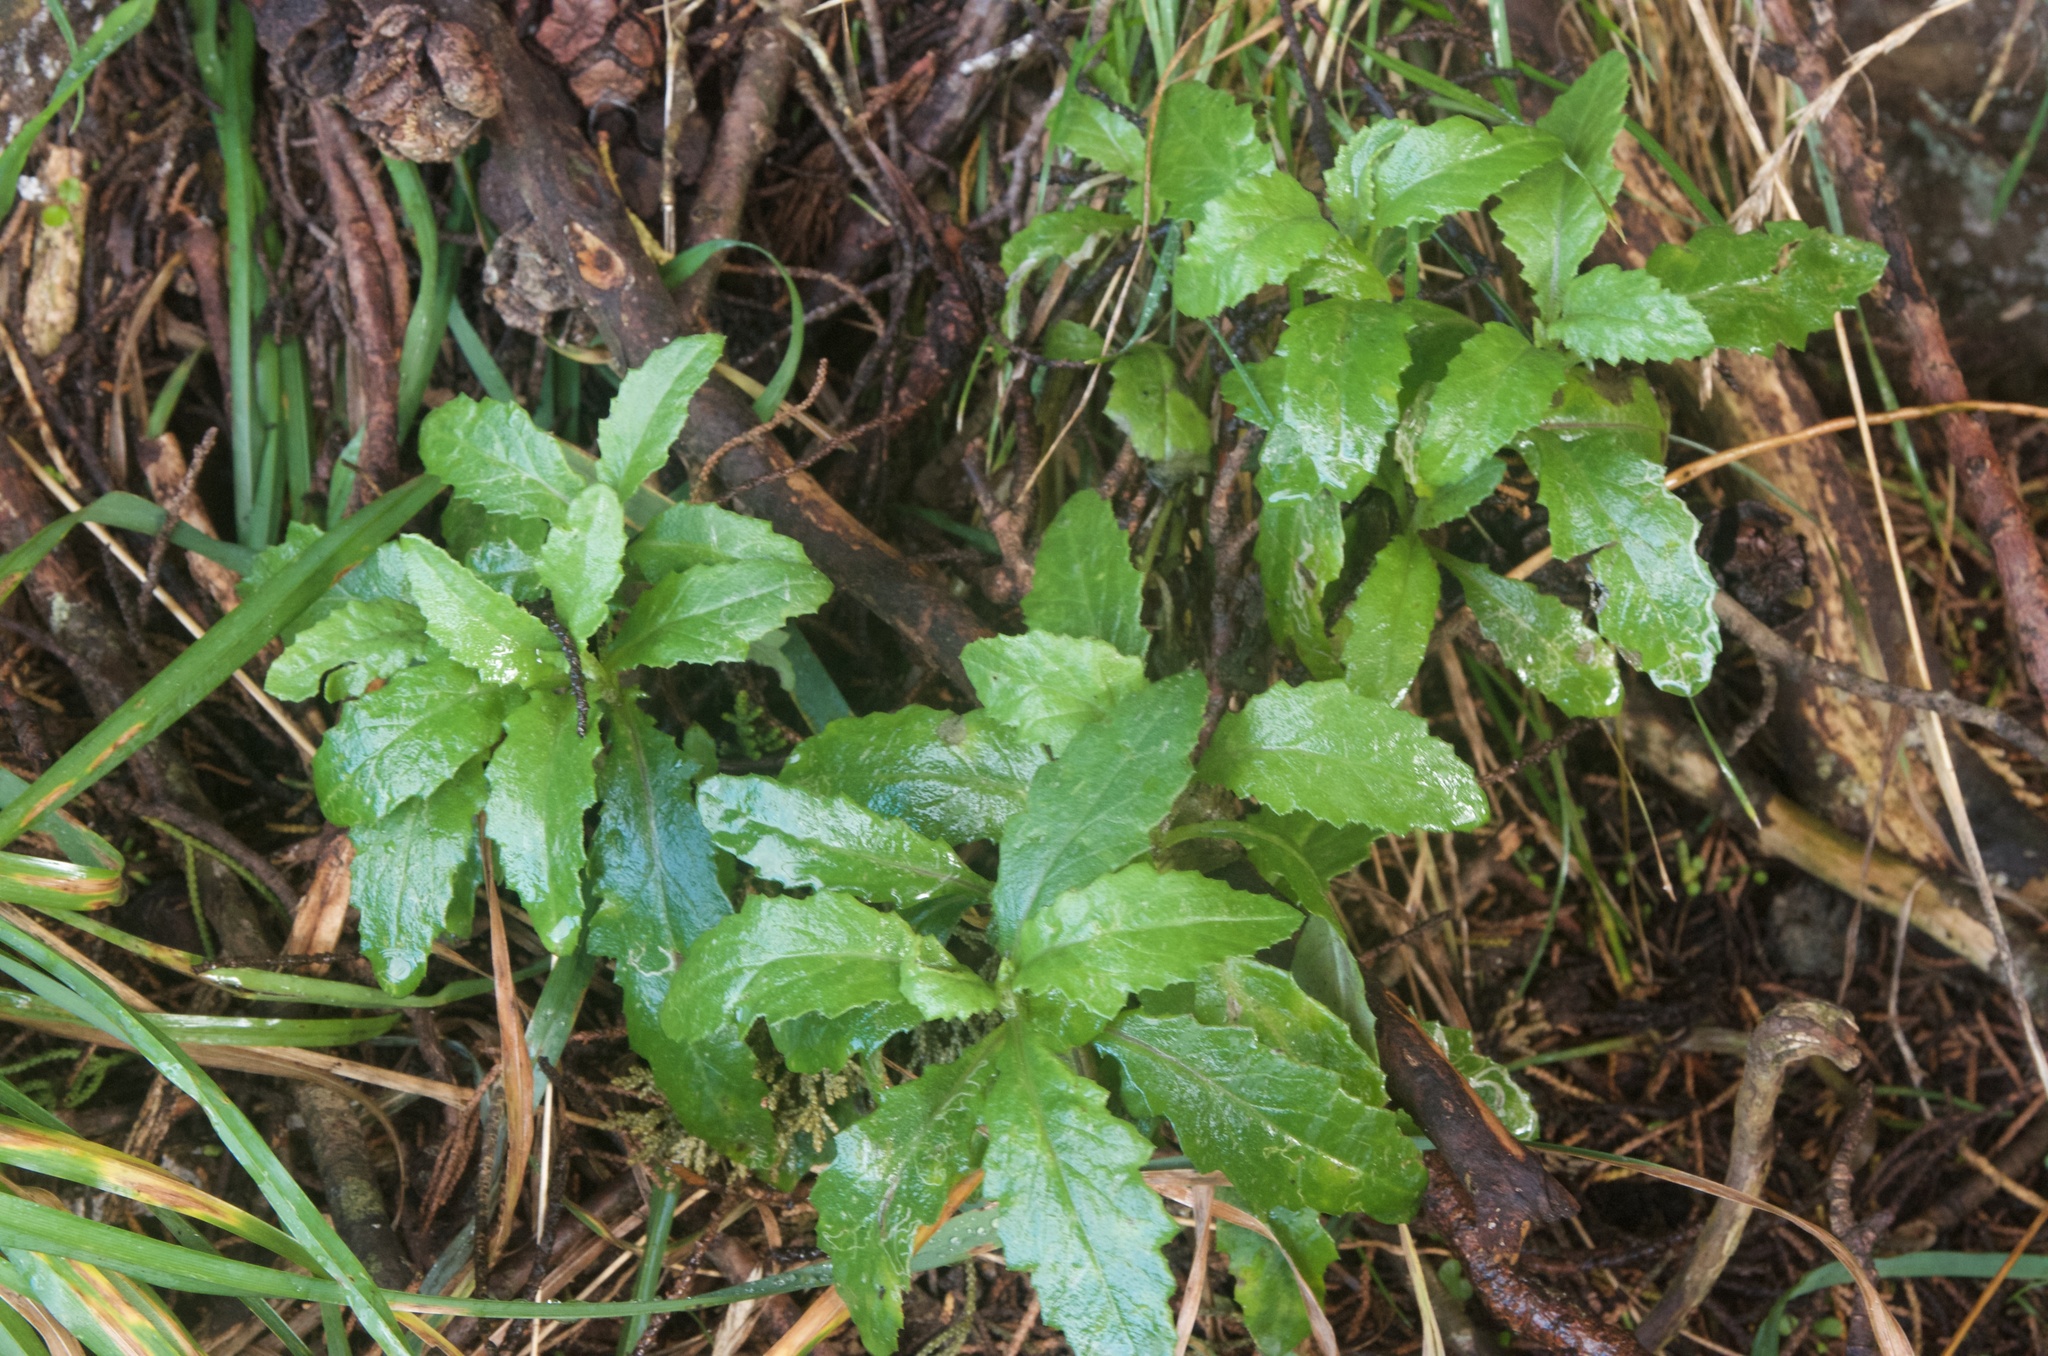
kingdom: Plantae
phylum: Tracheophyta
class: Magnoliopsida
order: Asterales
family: Asteraceae
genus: Senecio
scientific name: Senecio biserratus
